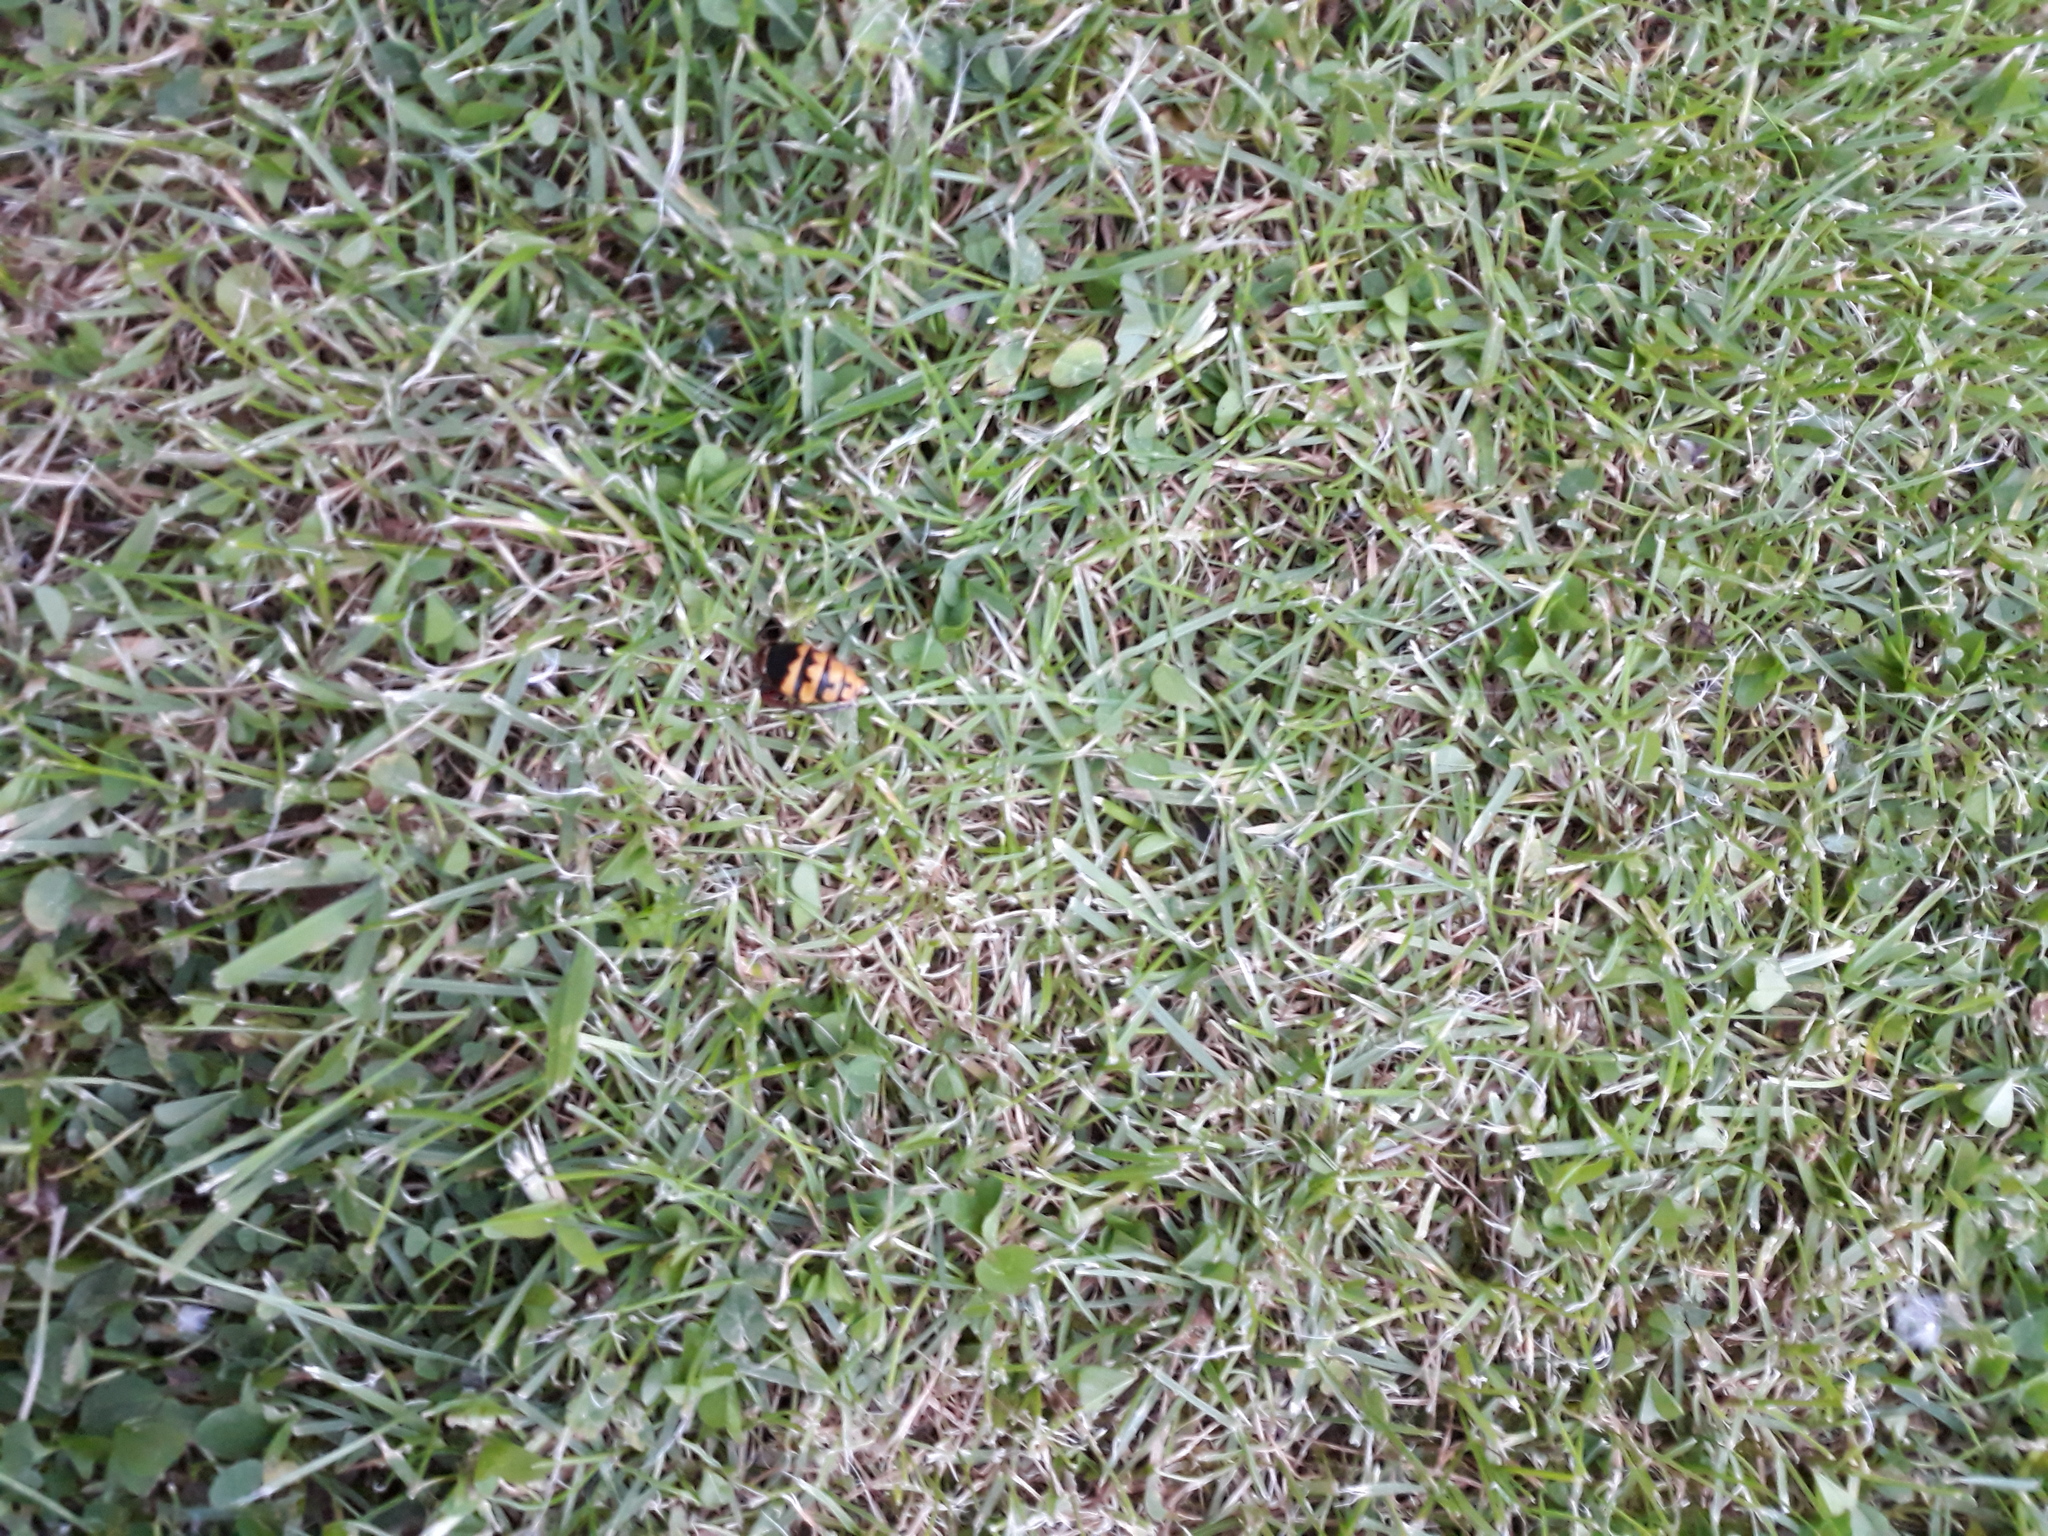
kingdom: Animalia
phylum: Arthropoda
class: Insecta
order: Hymenoptera
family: Vespidae
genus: Vespa
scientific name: Vespa crabro
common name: Hornet
